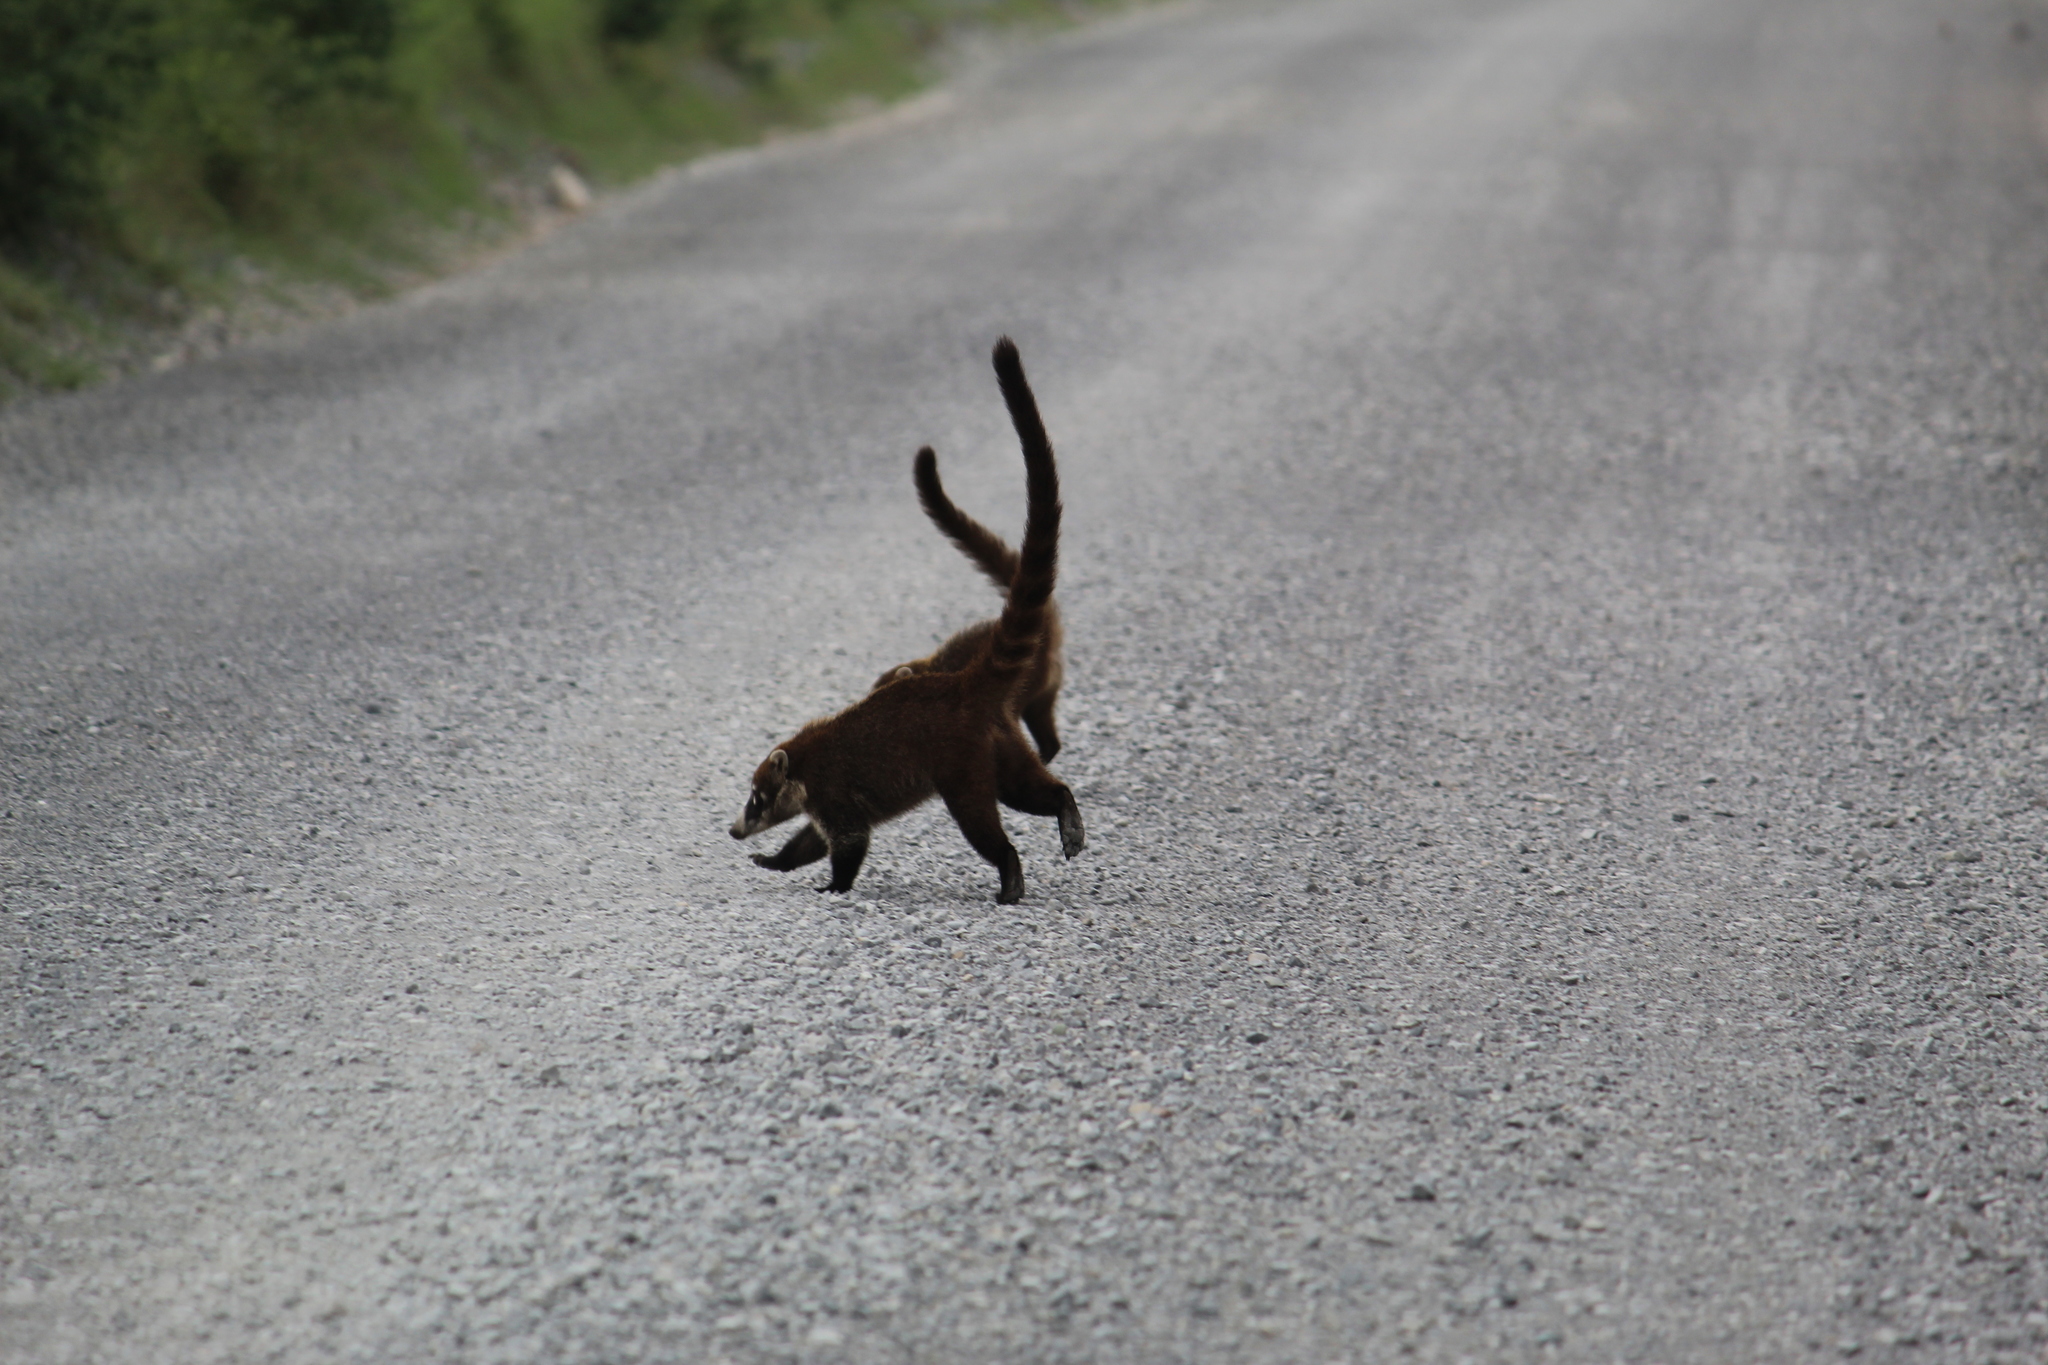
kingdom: Animalia
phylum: Chordata
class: Mammalia
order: Carnivora
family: Procyonidae
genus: Nasua
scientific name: Nasua narica
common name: White-nosed coati
